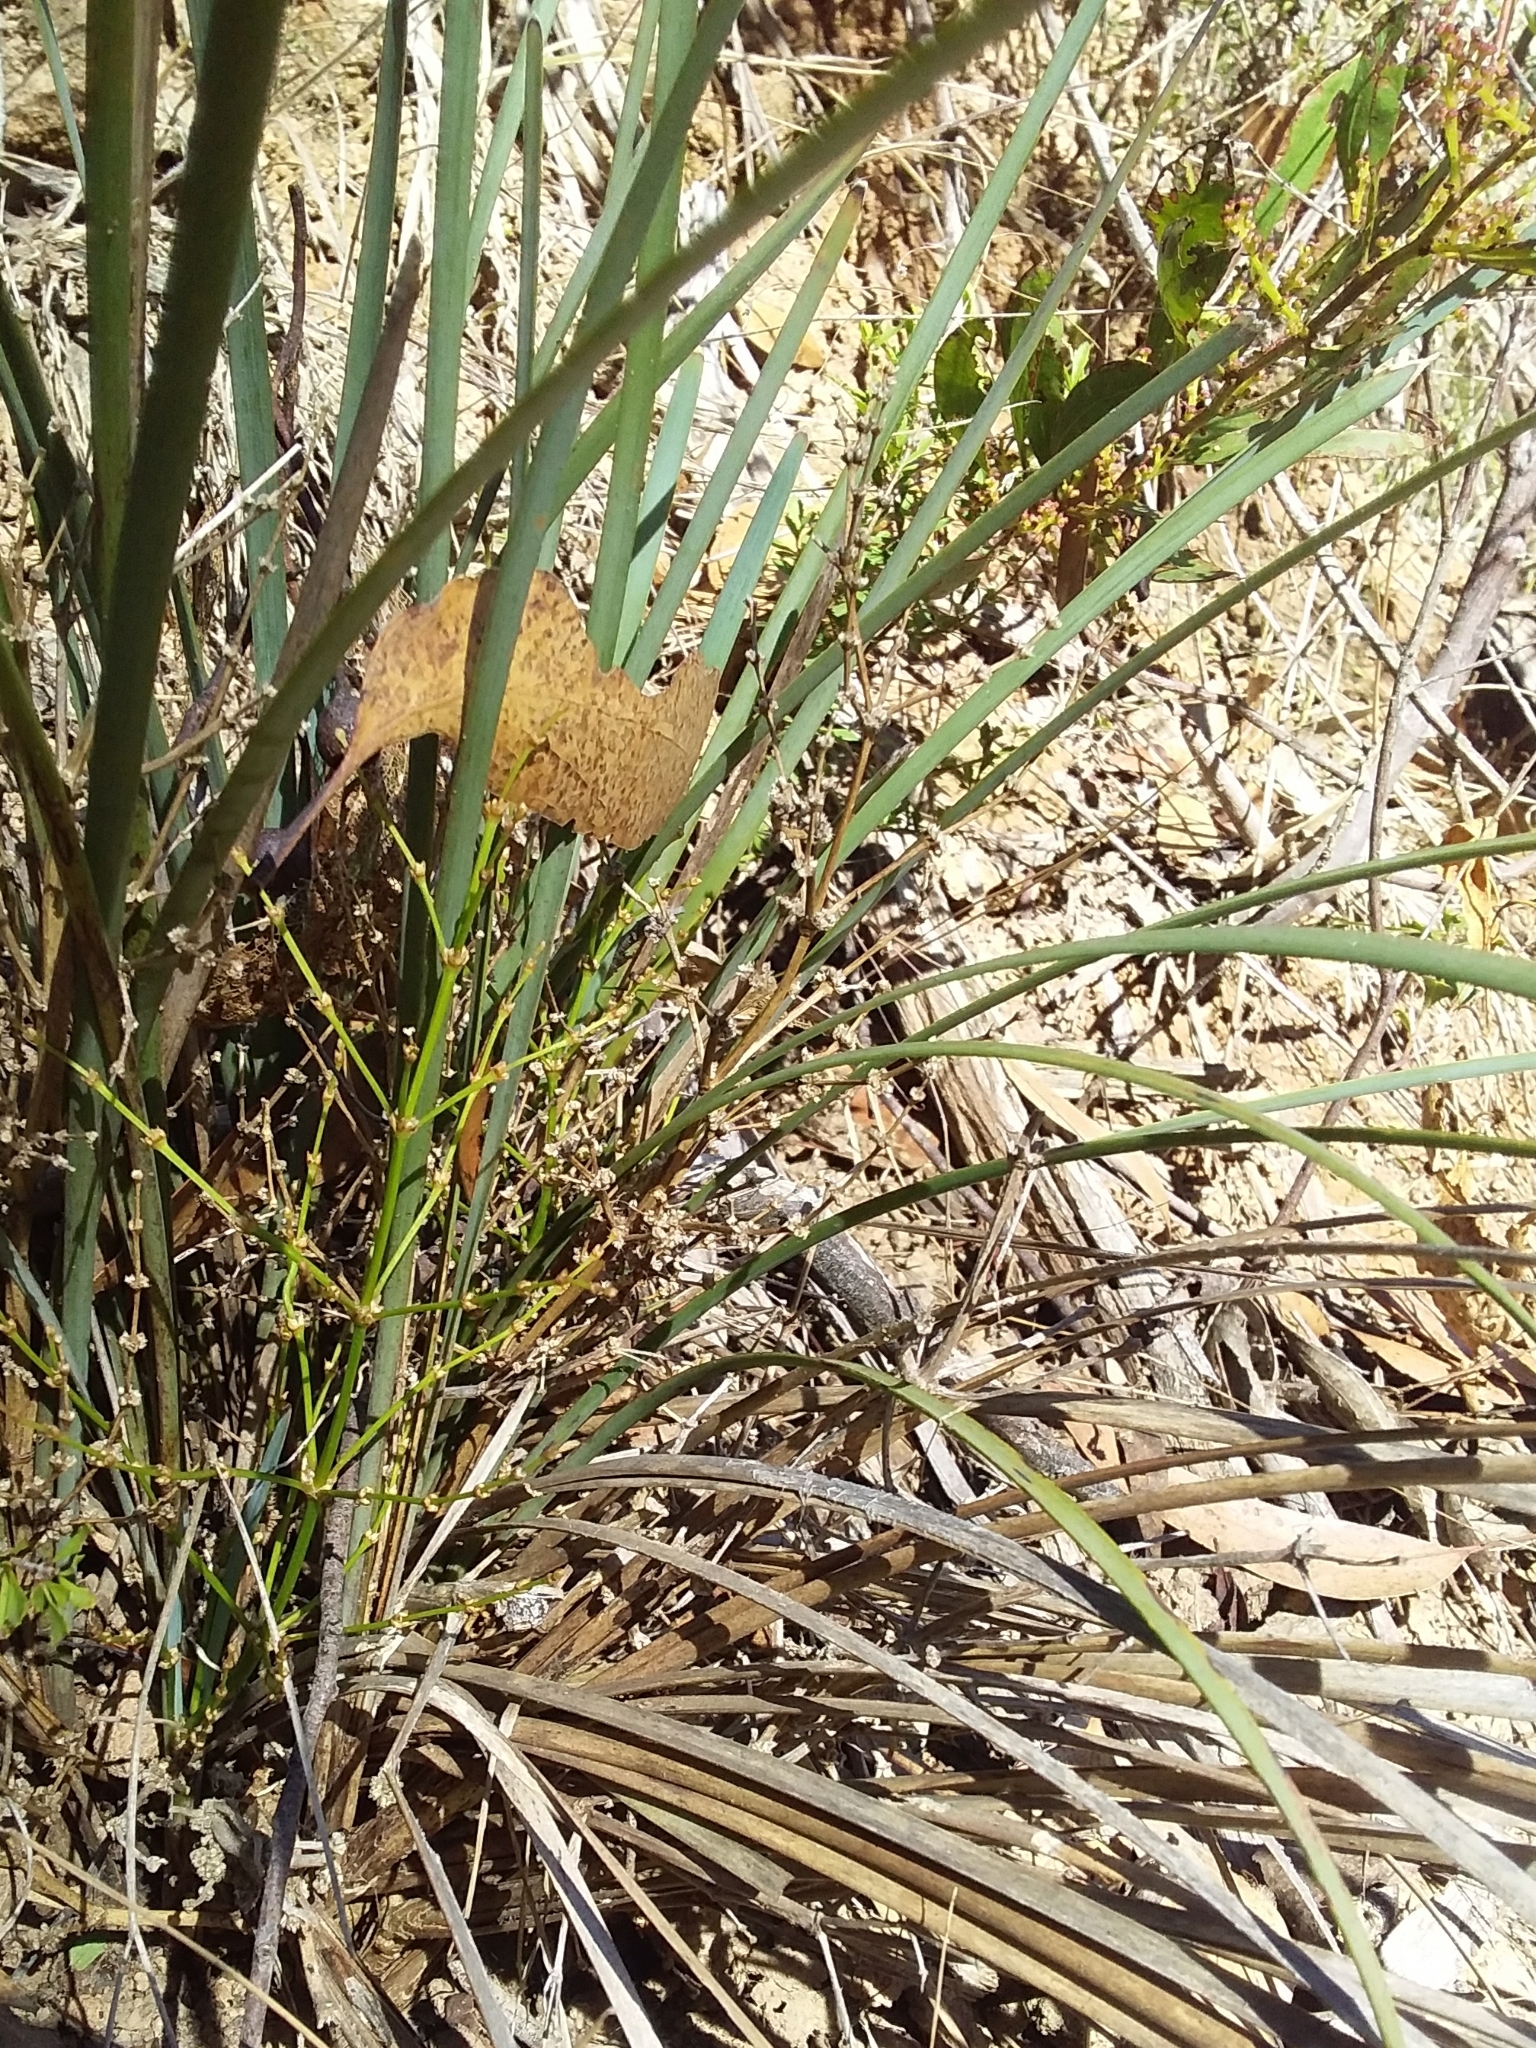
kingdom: Plantae
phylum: Tracheophyta
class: Liliopsida
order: Asparagales
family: Asparagaceae
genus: Lomandra
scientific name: Lomandra multiflora
